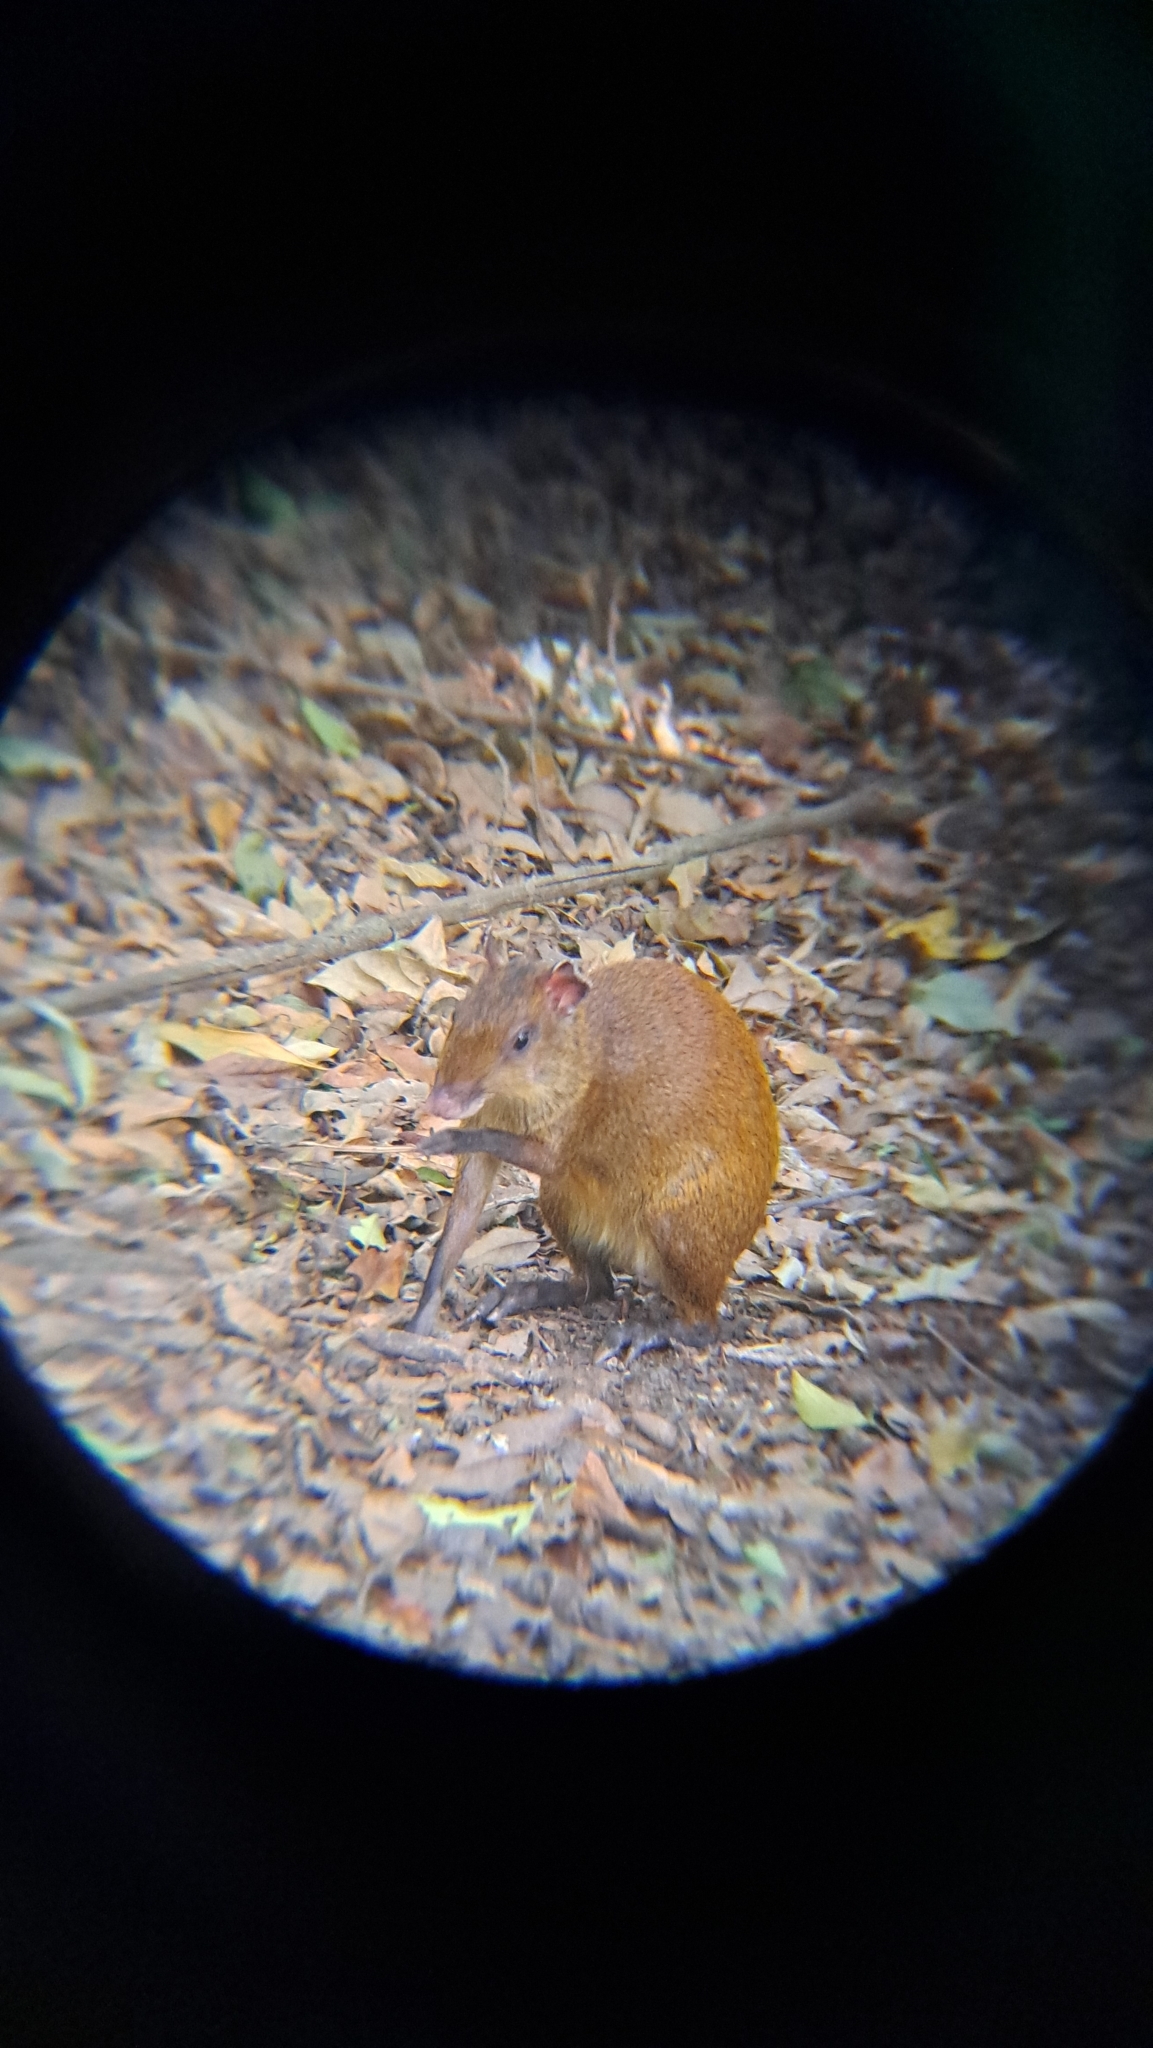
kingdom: Animalia
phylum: Chordata
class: Mammalia
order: Rodentia
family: Dasyproctidae
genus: Dasyprocta
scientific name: Dasyprocta punctata
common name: Central american agouti
